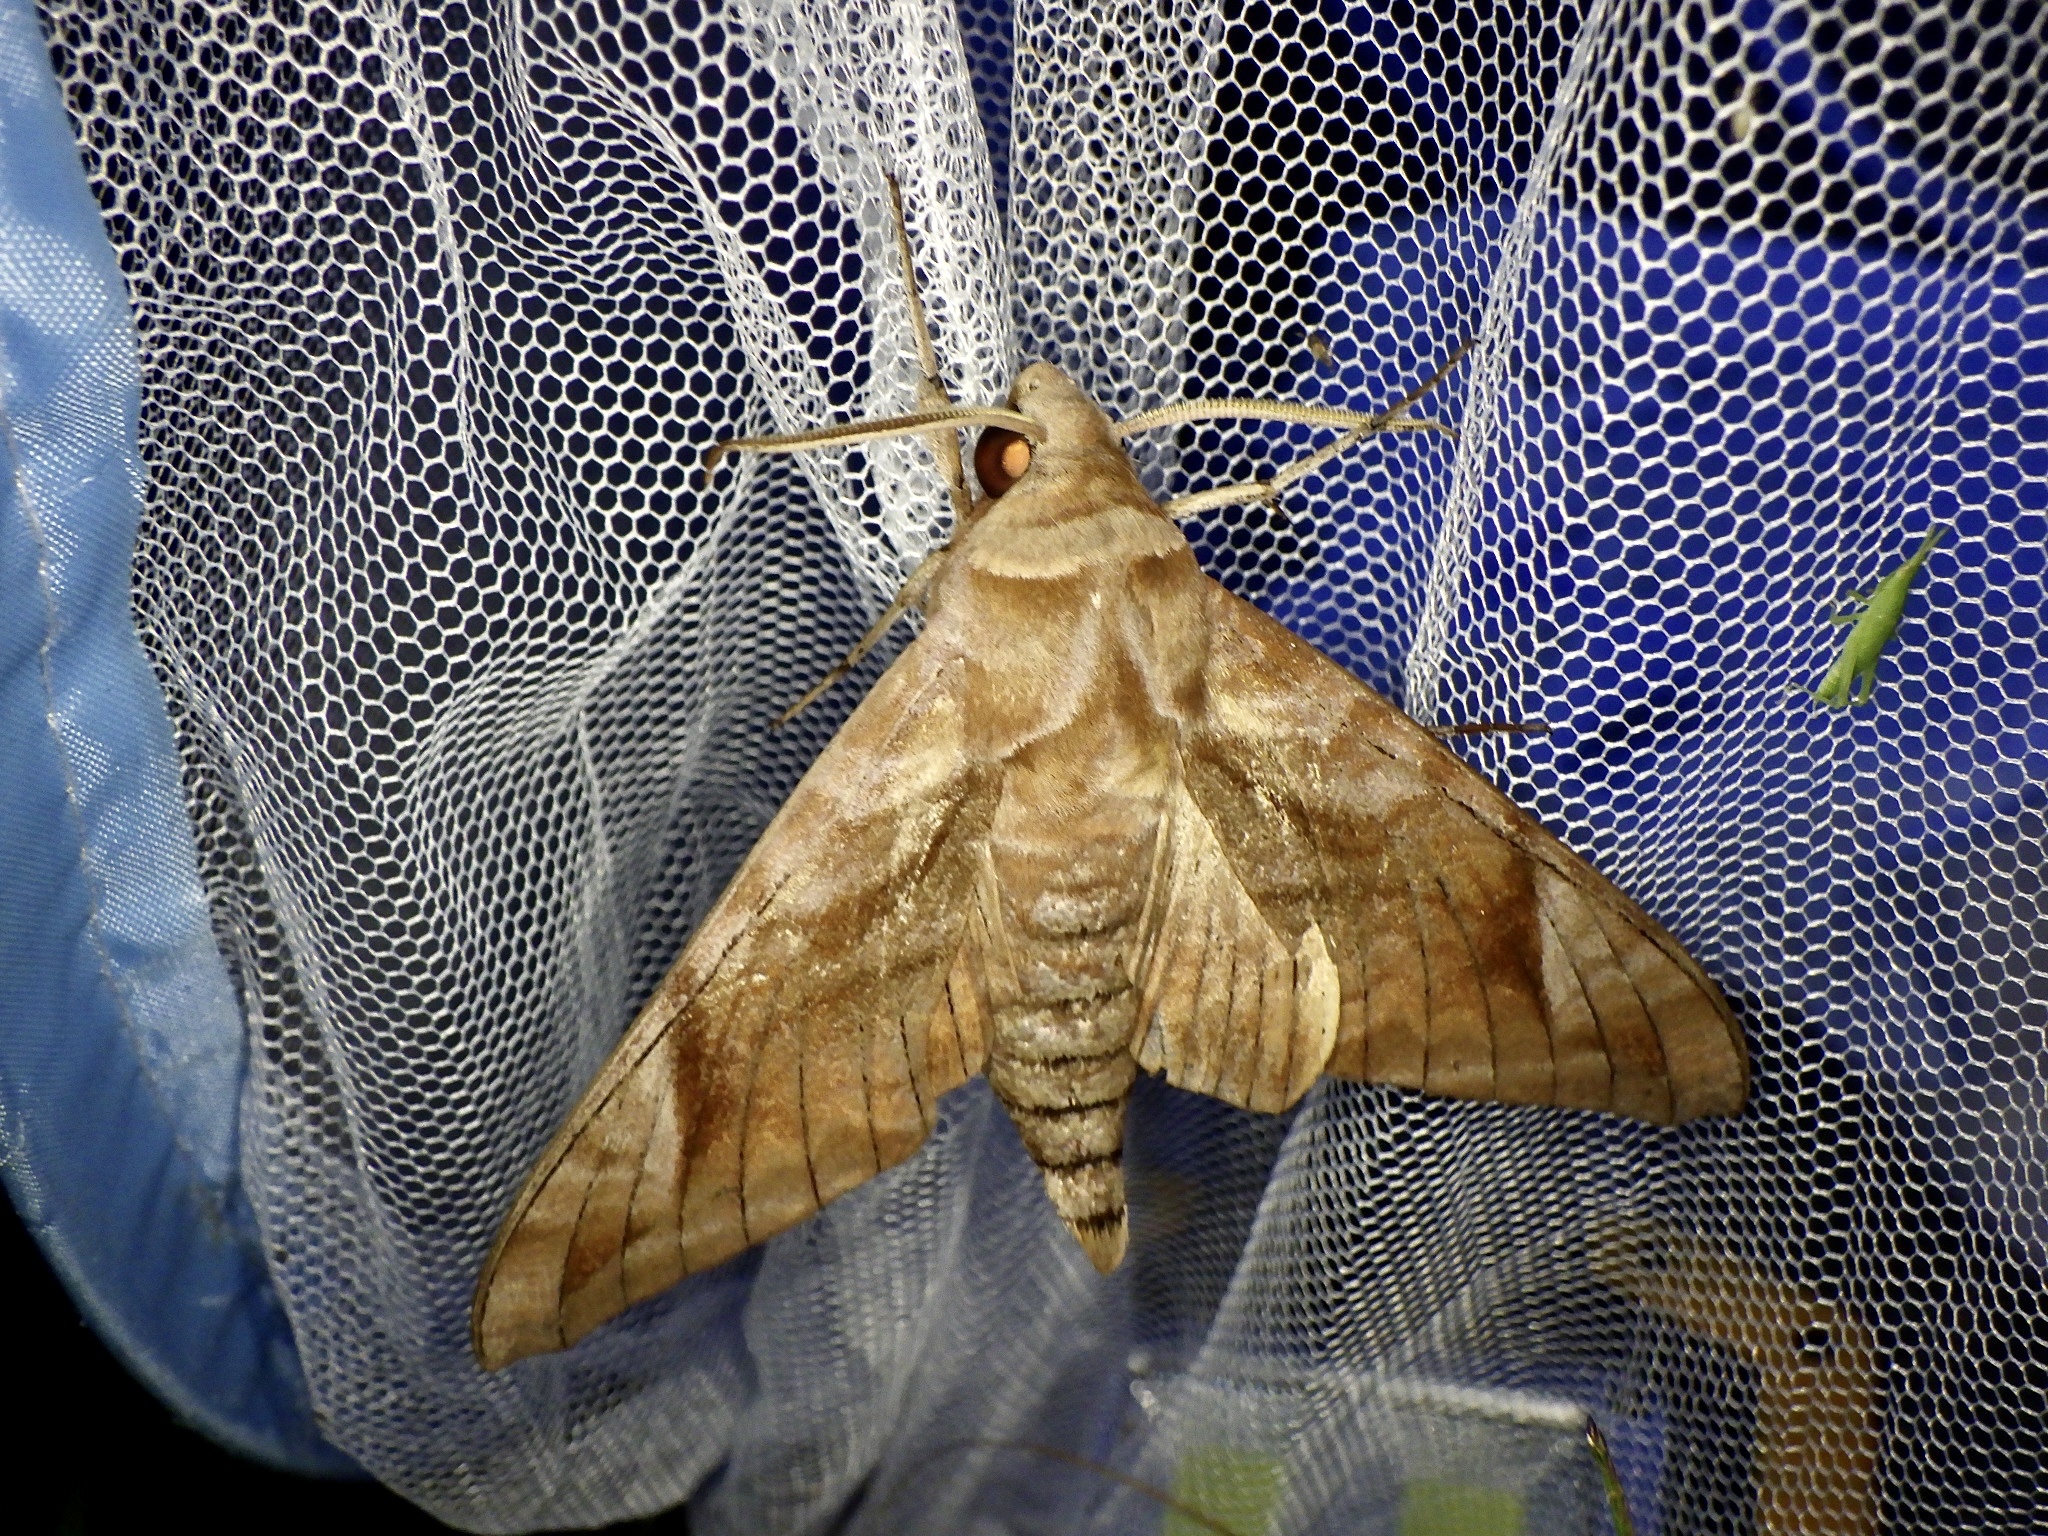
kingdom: Animalia
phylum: Arthropoda
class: Insecta
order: Lepidoptera
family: Sphingidae
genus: Acosmeryx
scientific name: Acosmeryx naga
